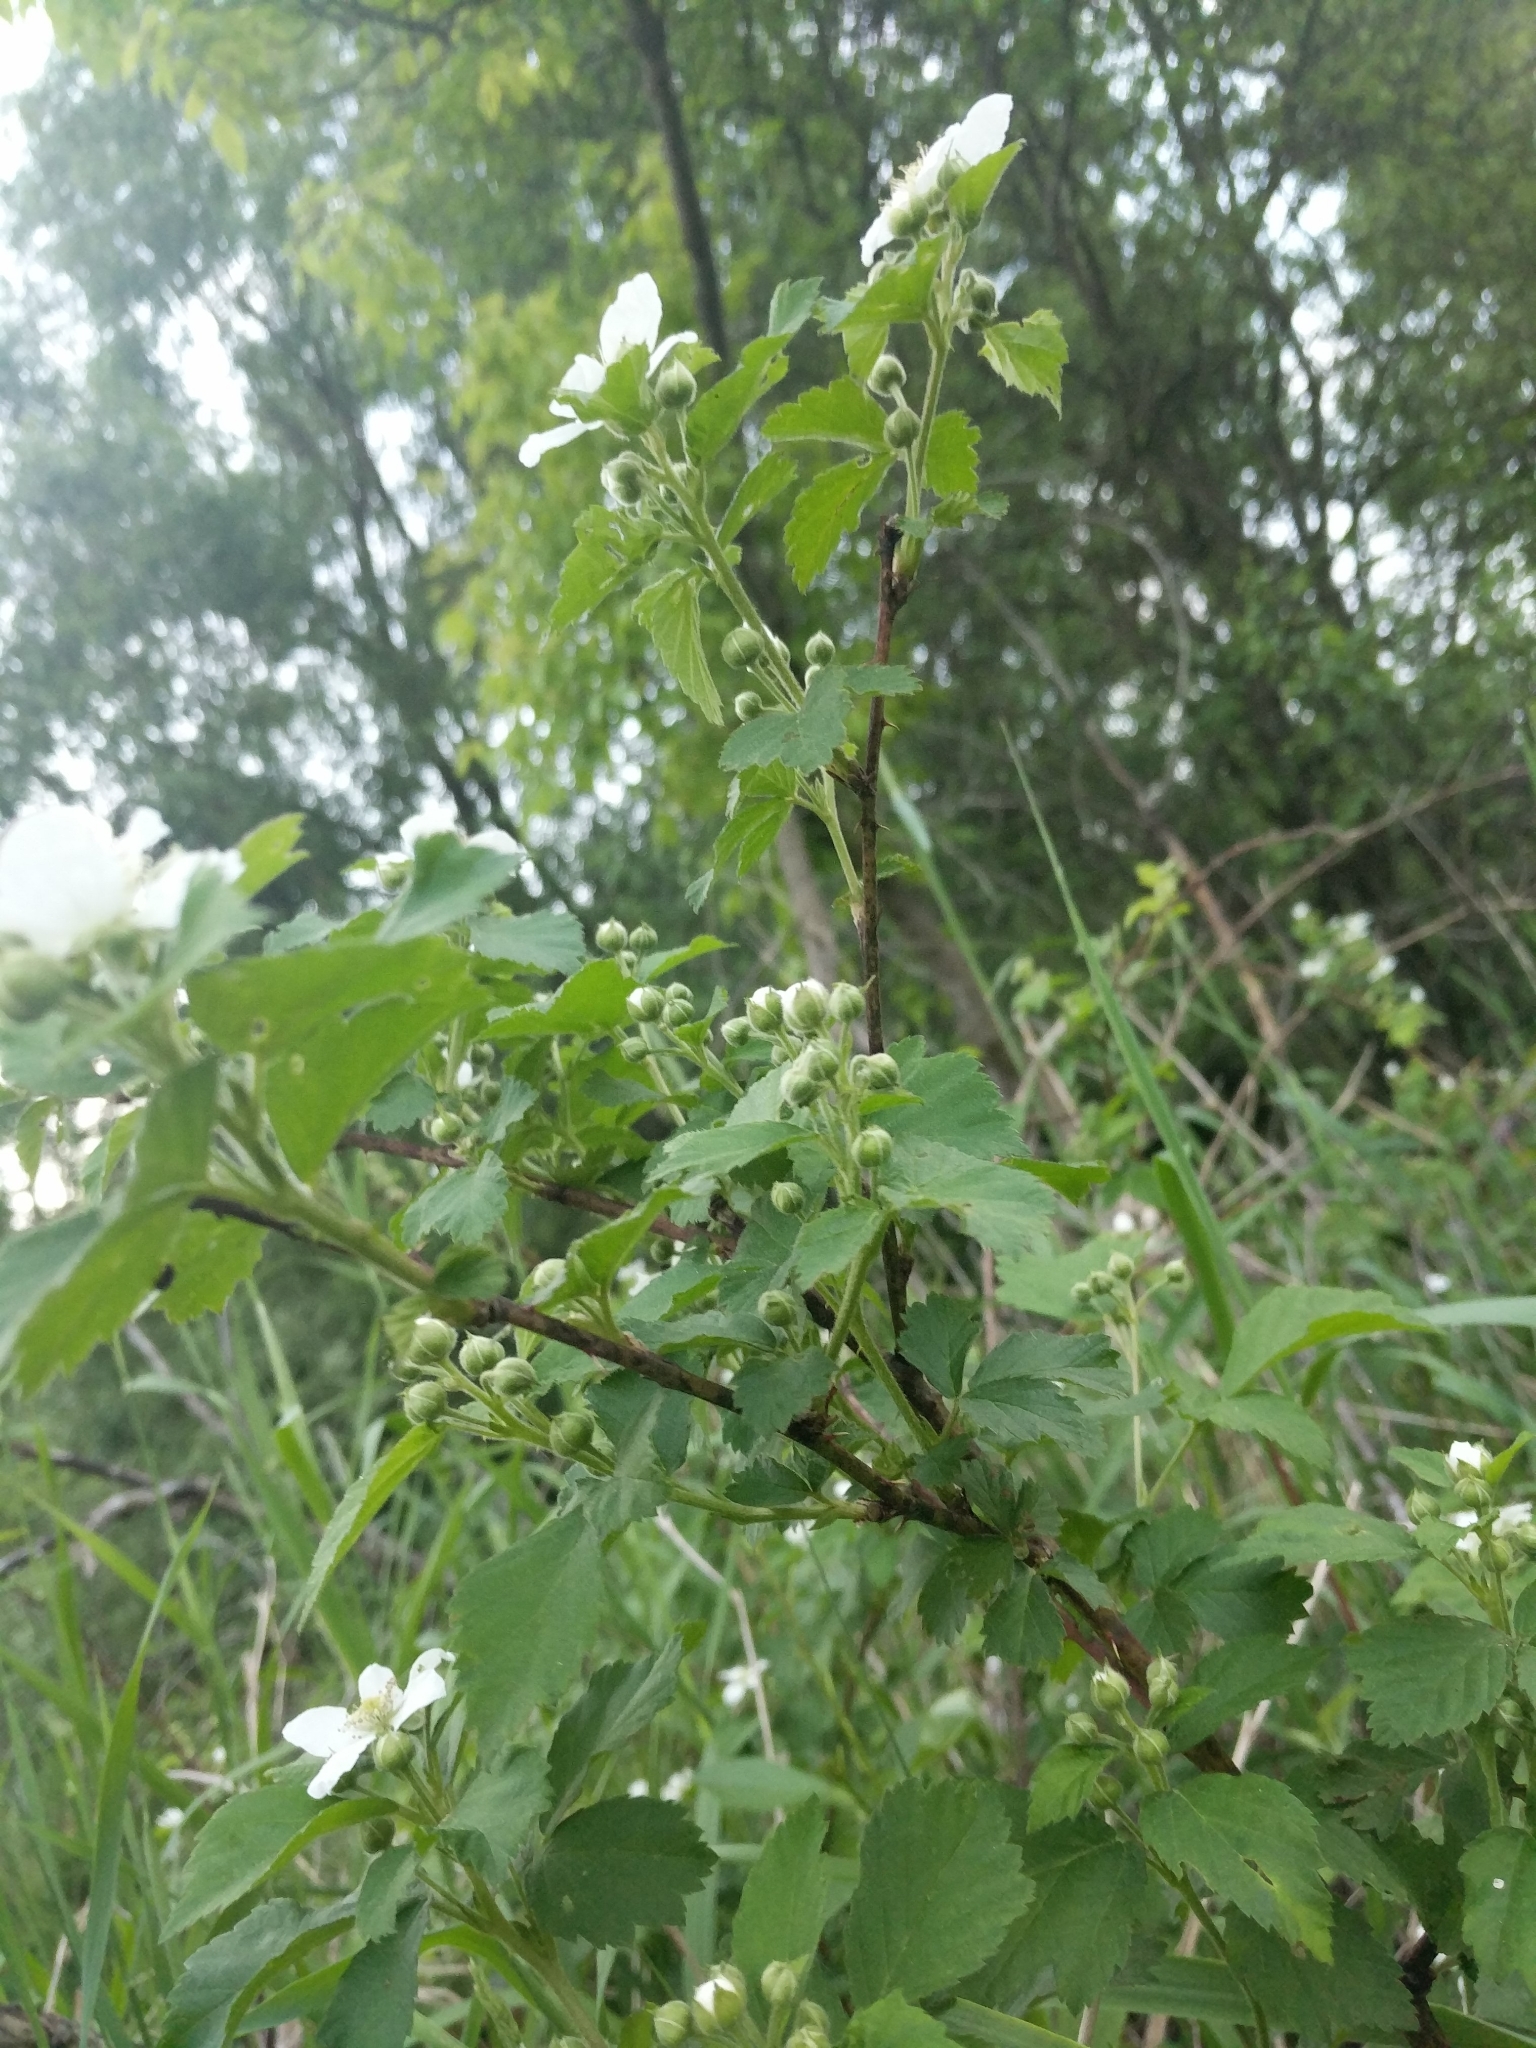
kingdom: Plantae
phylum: Tracheophyta
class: Magnoliopsida
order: Rosales
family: Rosaceae
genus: Rubus
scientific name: Rubus allegheniensis
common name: Allegheny blackberry
